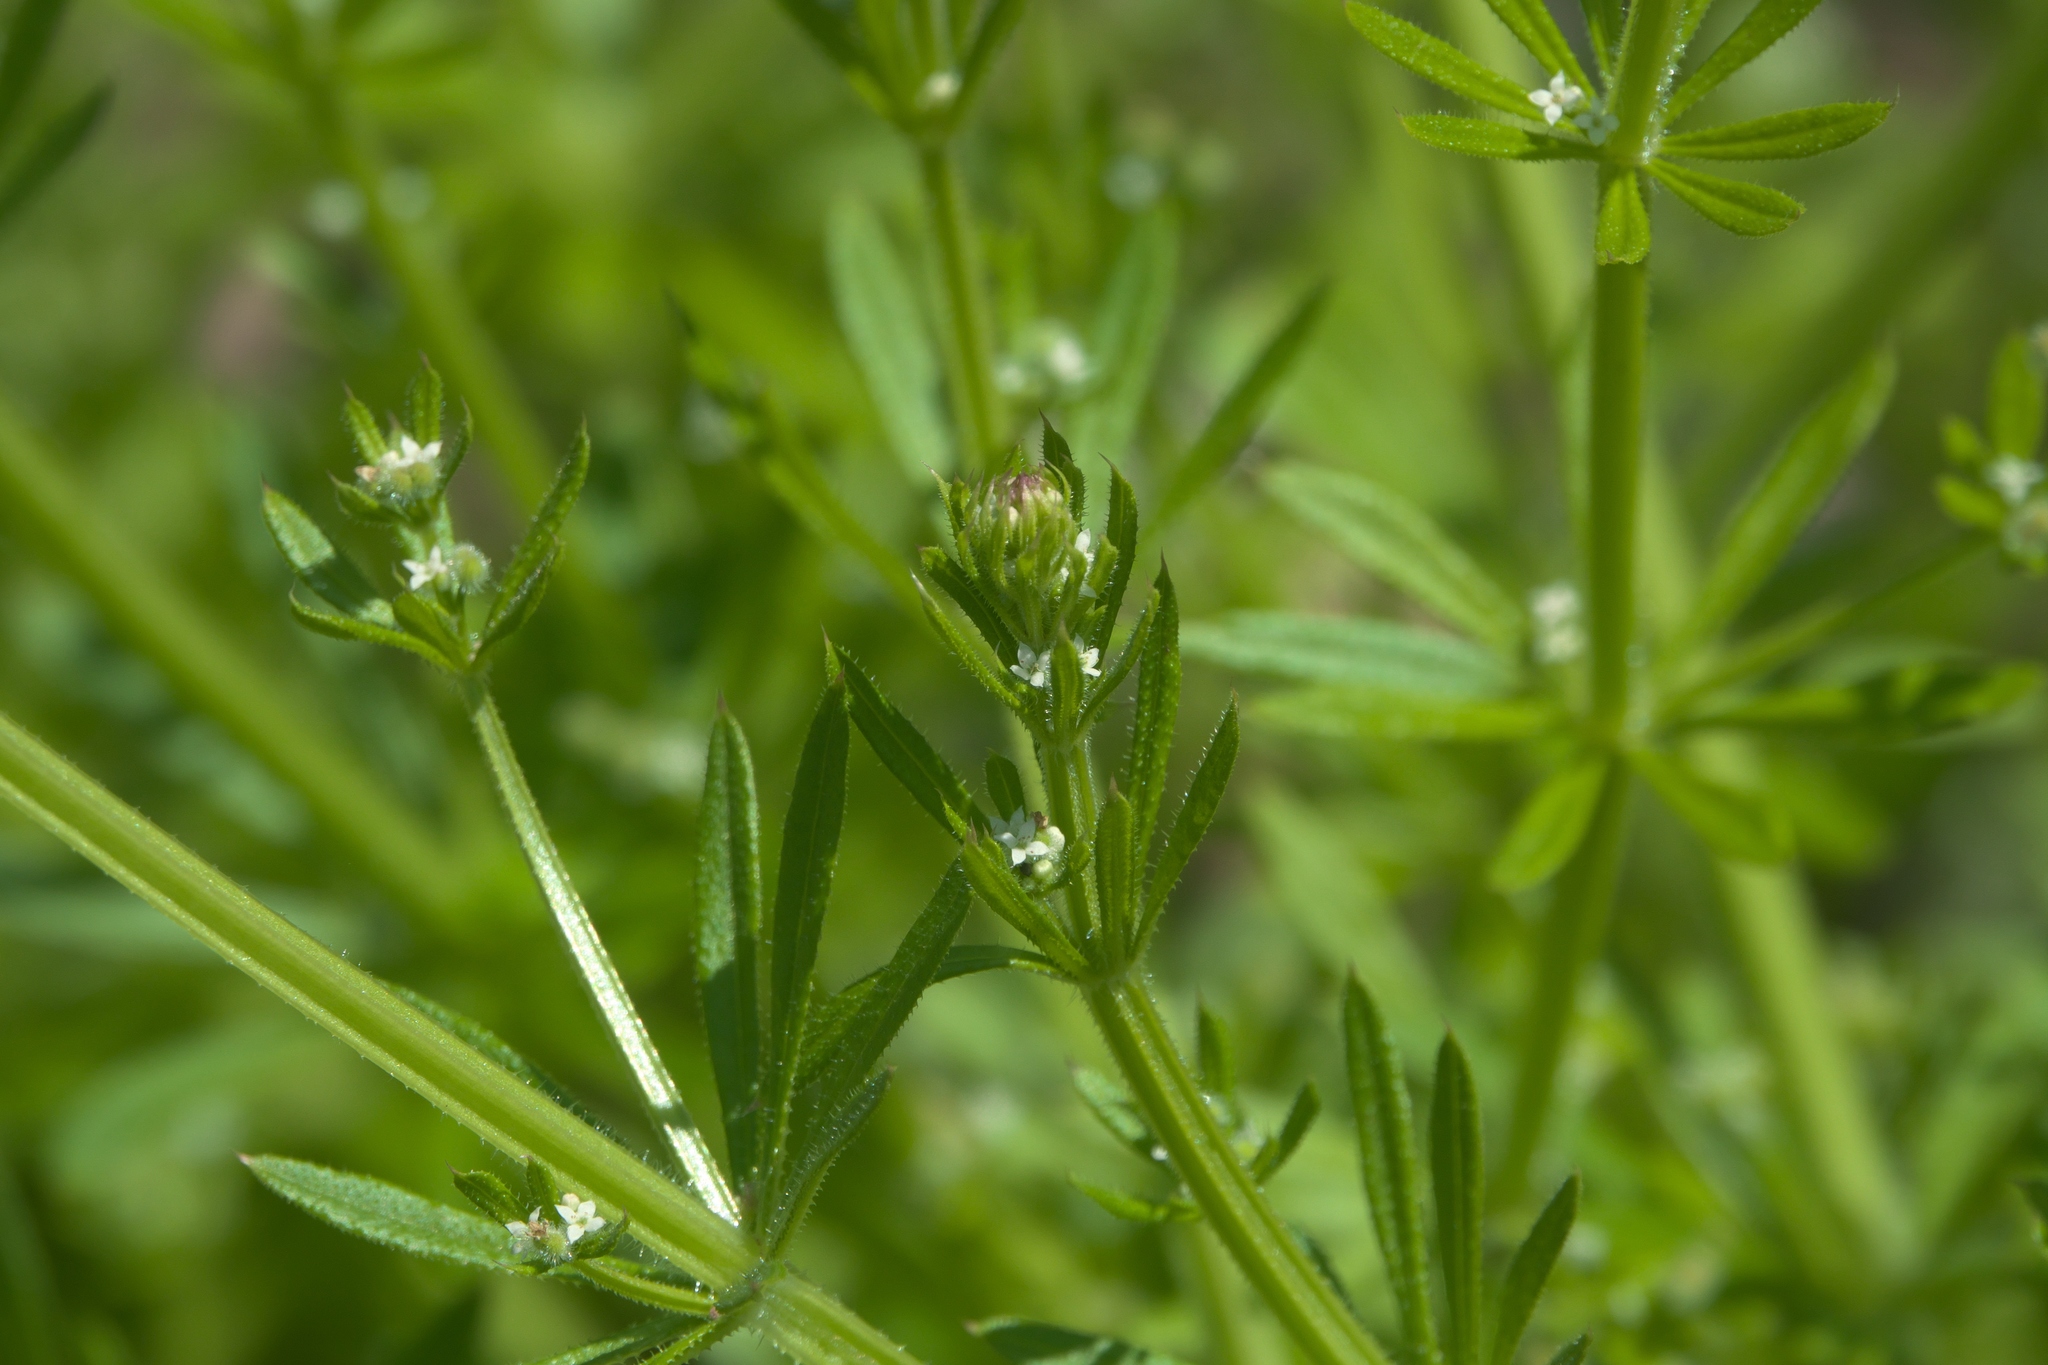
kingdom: Plantae
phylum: Tracheophyta
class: Magnoliopsida
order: Gentianales
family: Rubiaceae
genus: Galium
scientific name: Galium aparine
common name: Cleavers
